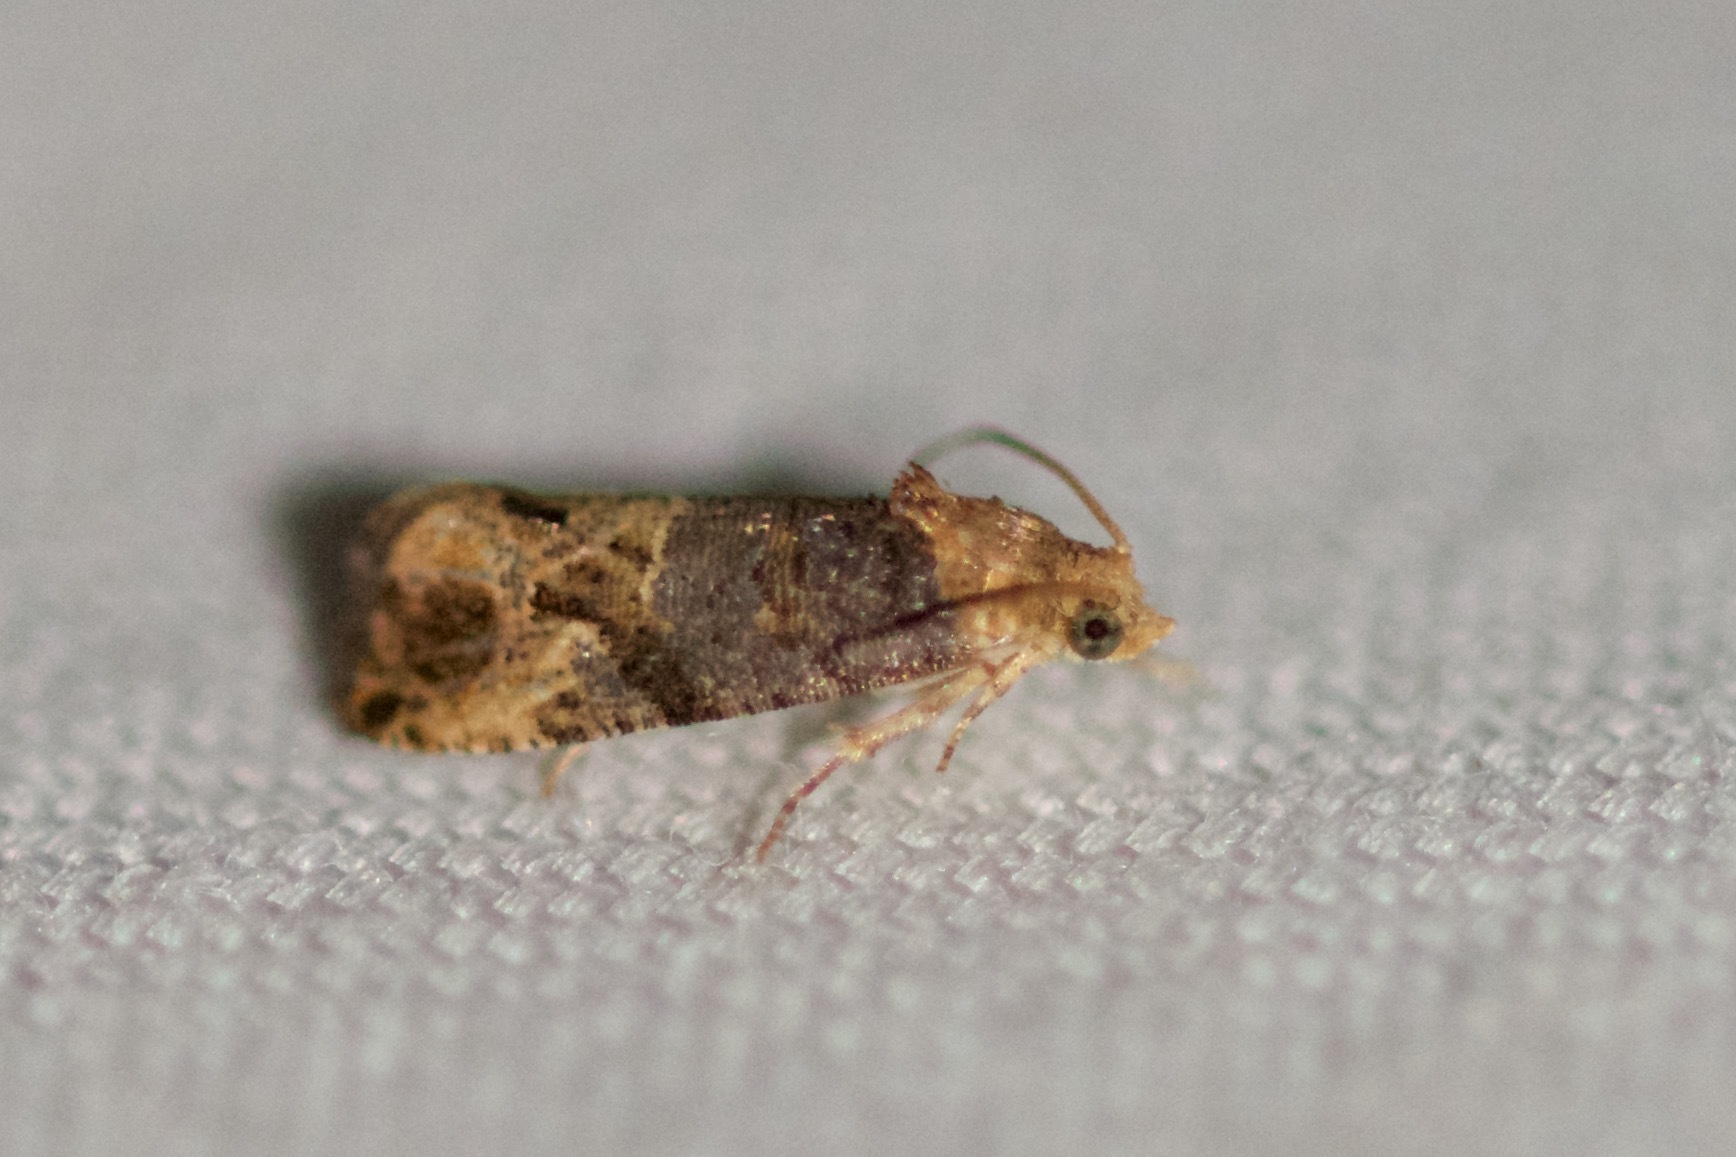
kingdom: Animalia
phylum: Arthropoda
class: Insecta
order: Lepidoptera
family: Tortricidae
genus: Paralobesia
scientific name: Paralobesia viteana
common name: Grape berry moth
